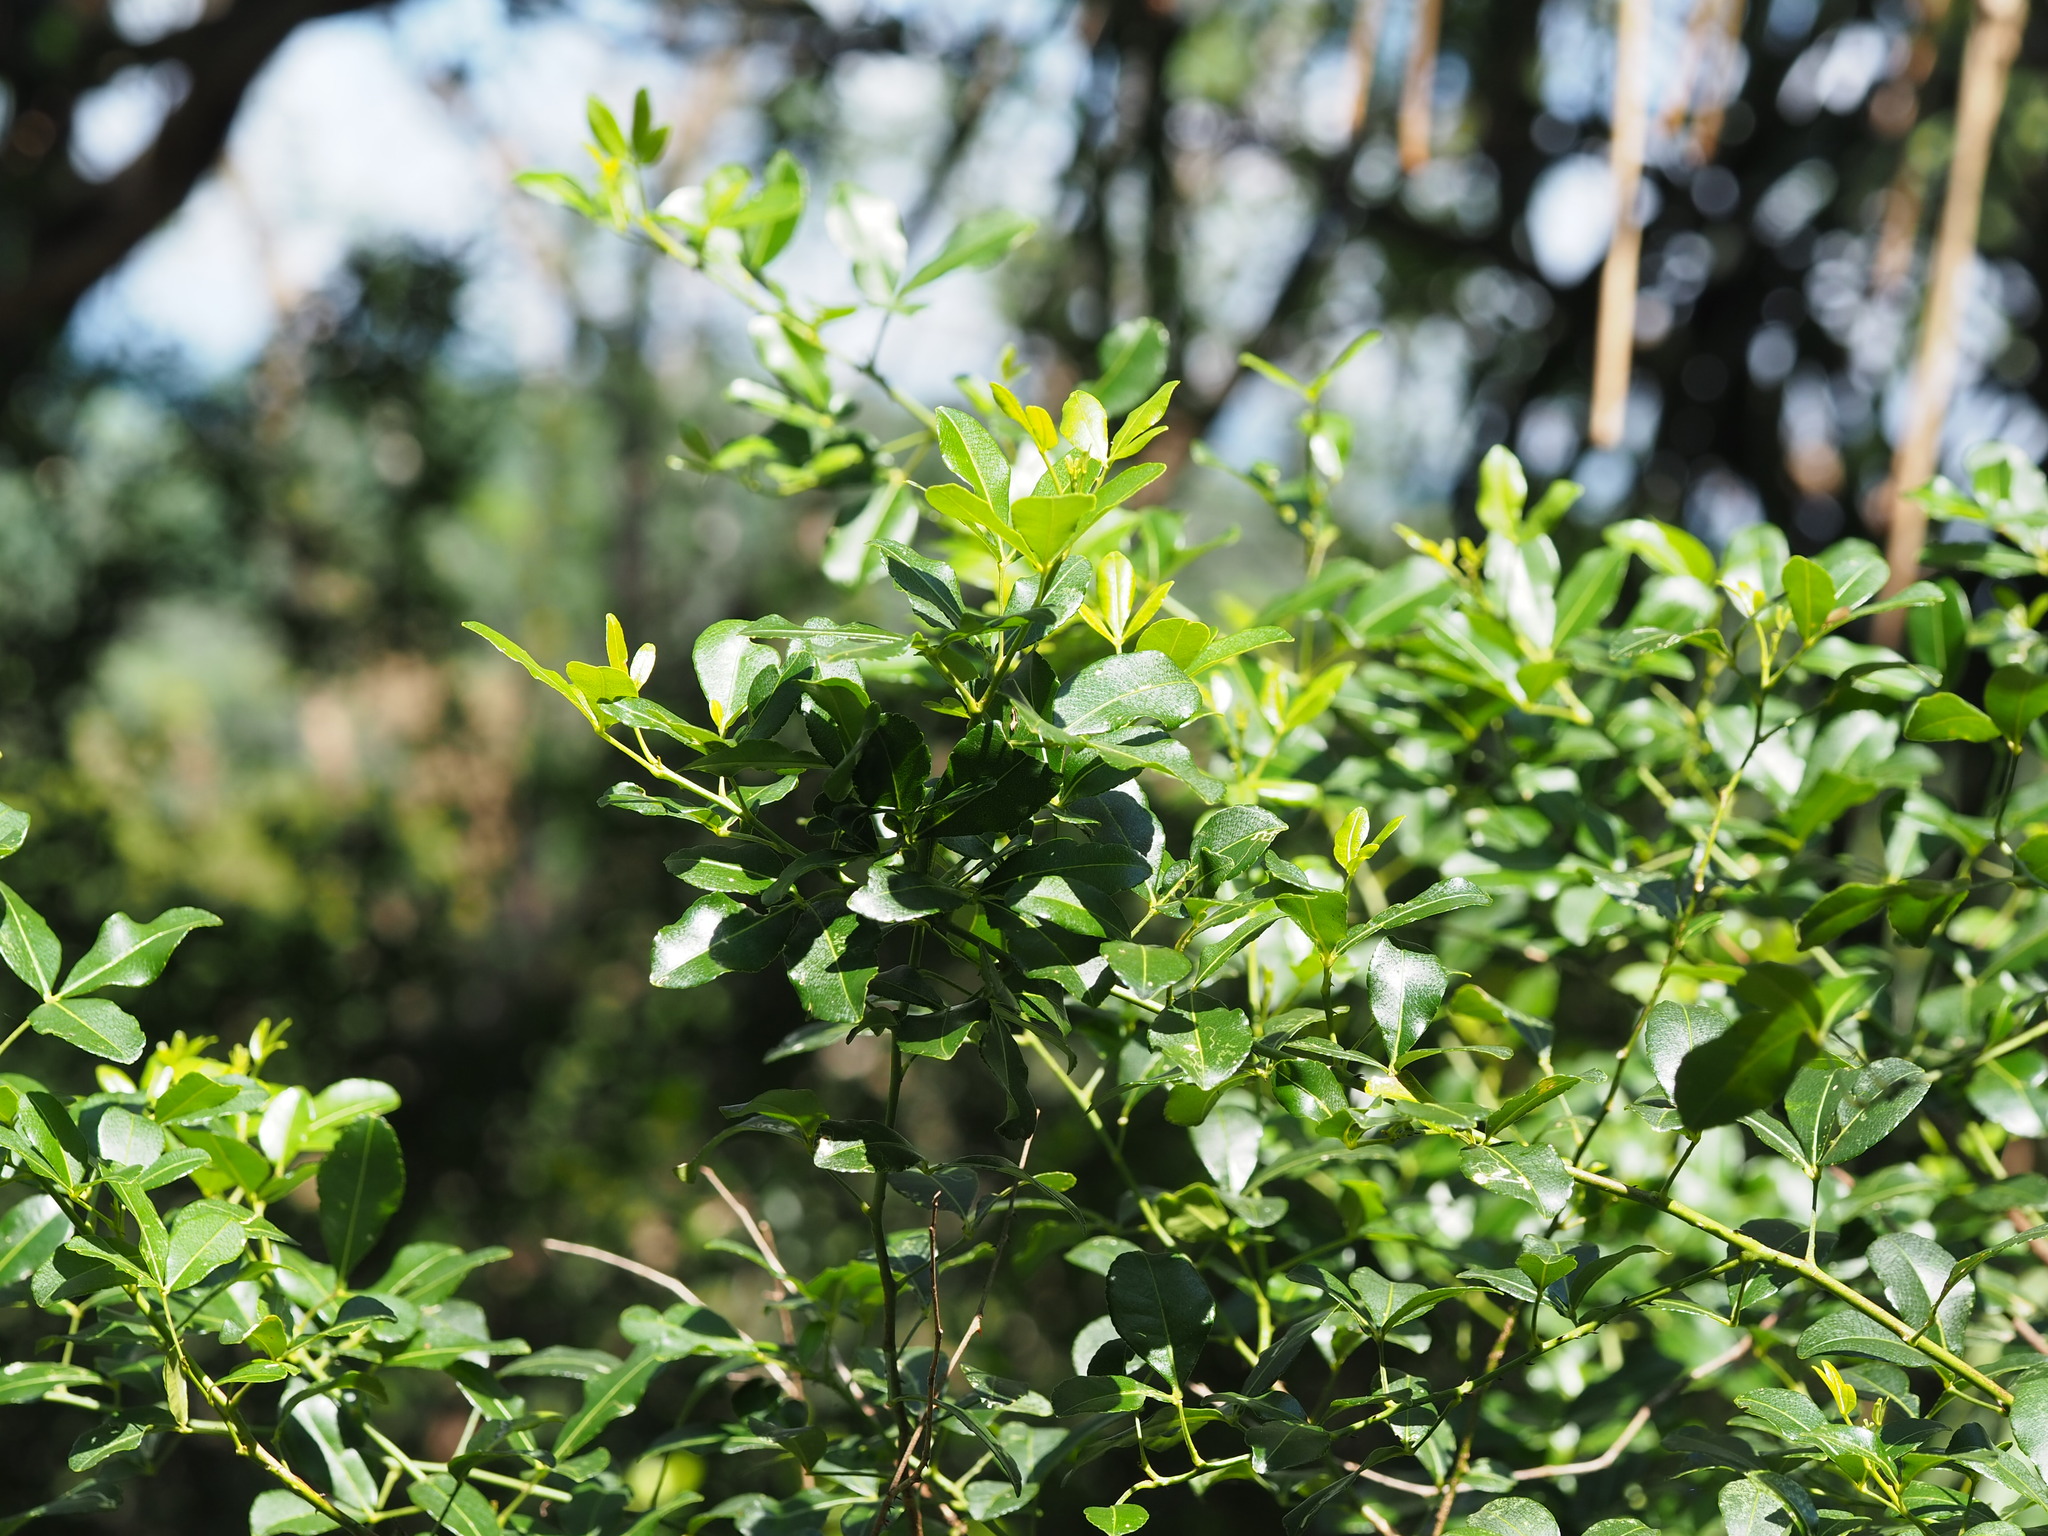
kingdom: Plantae
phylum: Tracheophyta
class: Magnoliopsida
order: Sapindales
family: Rutaceae
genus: Zanthoxylum
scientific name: Zanthoxylum asiaticum
